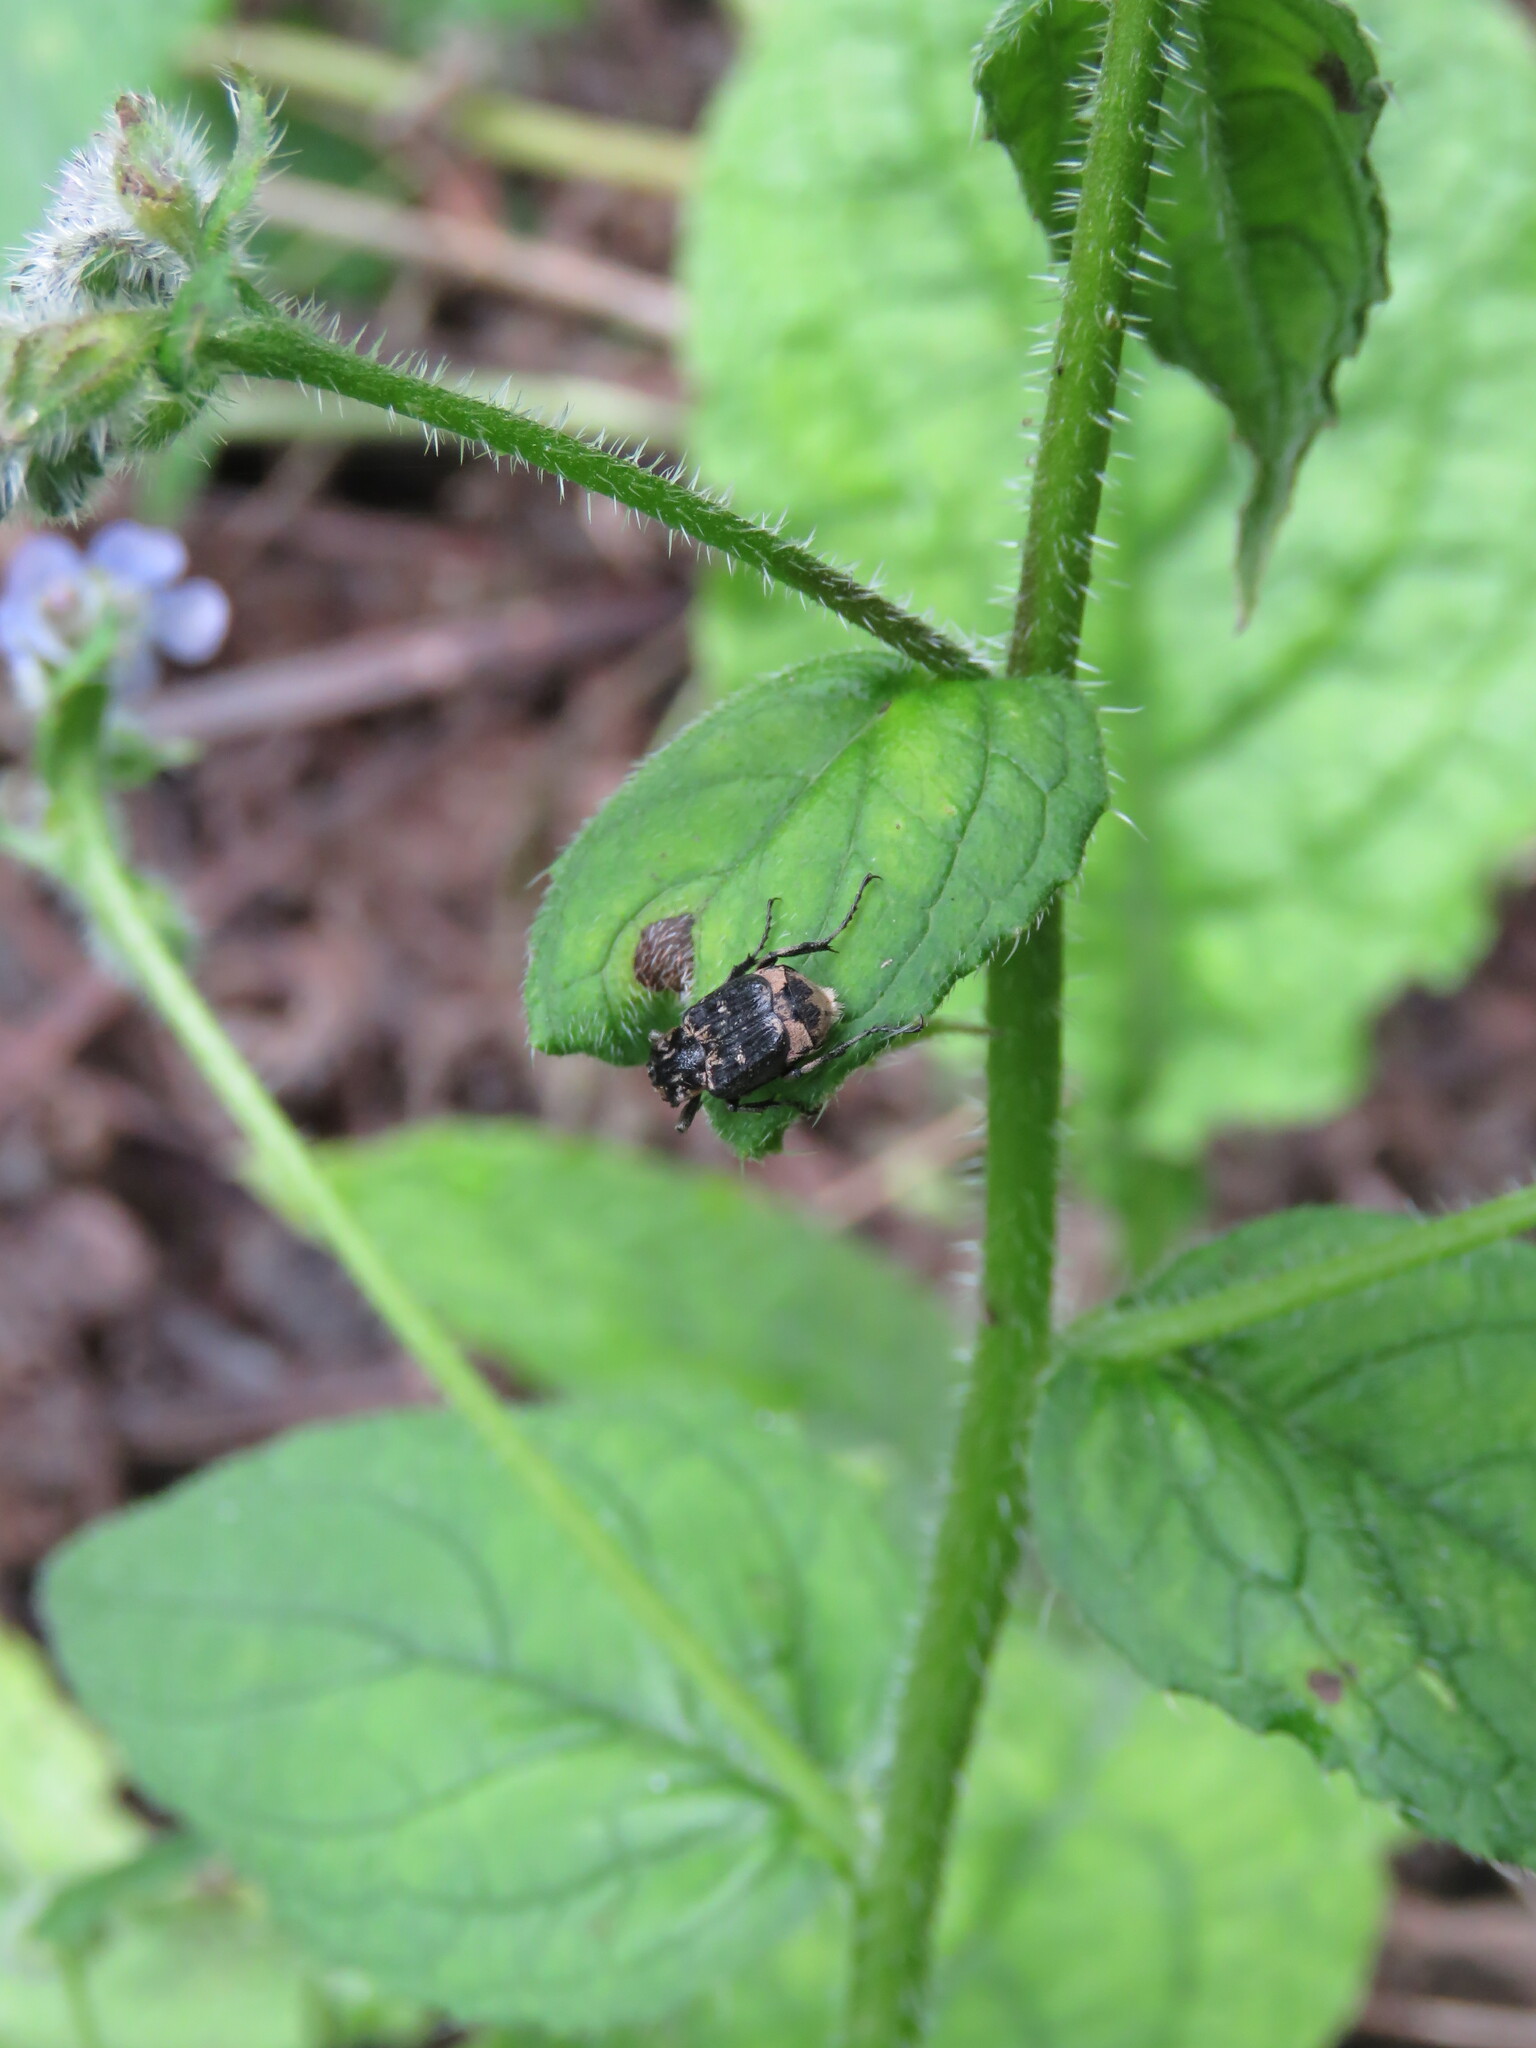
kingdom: Animalia
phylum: Arthropoda
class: Insecta
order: Coleoptera
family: Scarabaeidae
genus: Valgus
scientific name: Valgus hemipterus
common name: Bug flower chafer
